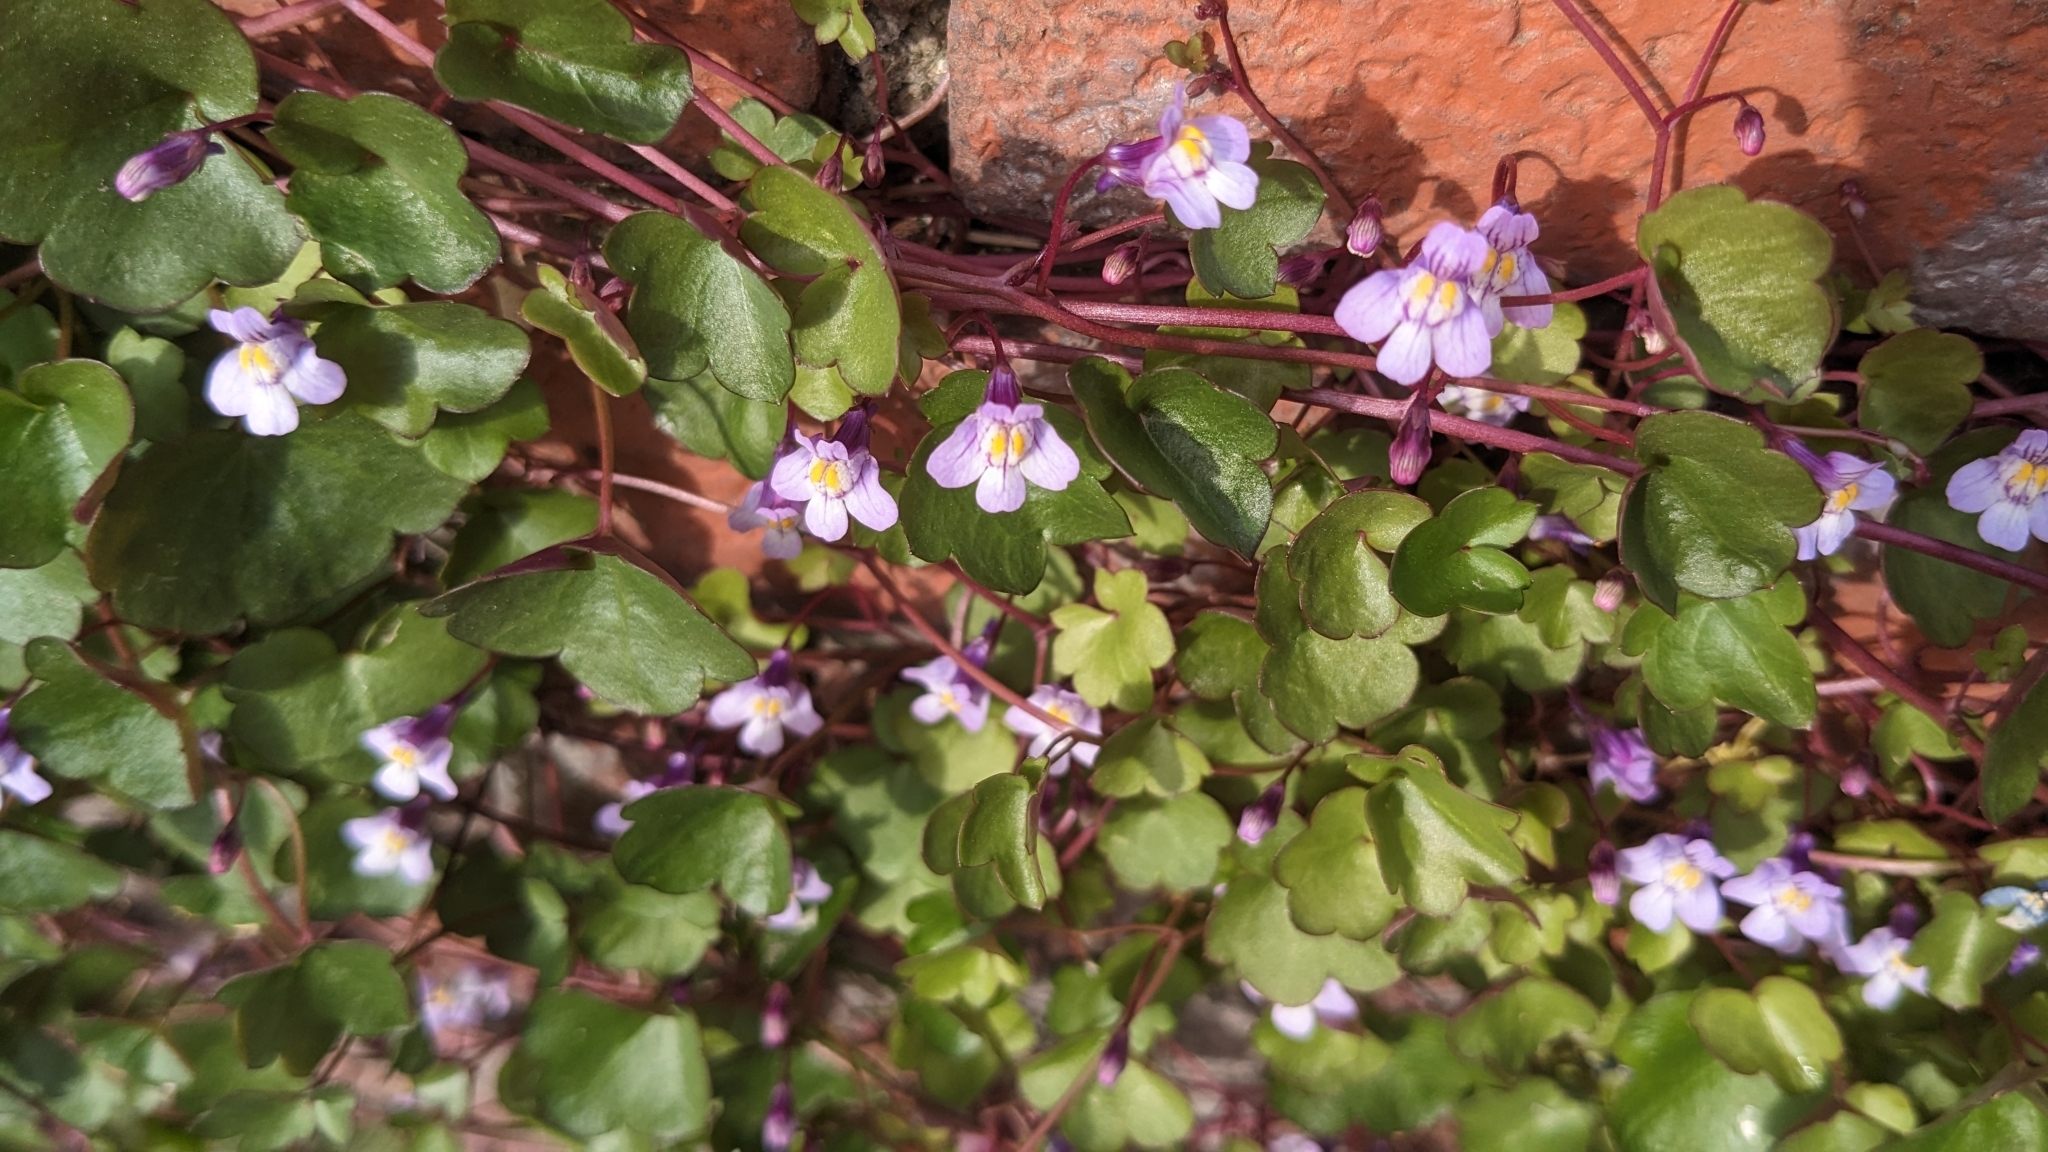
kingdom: Plantae
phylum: Tracheophyta
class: Magnoliopsida
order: Lamiales
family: Plantaginaceae
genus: Cymbalaria
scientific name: Cymbalaria muralis
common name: Ivy-leaved toadflax
